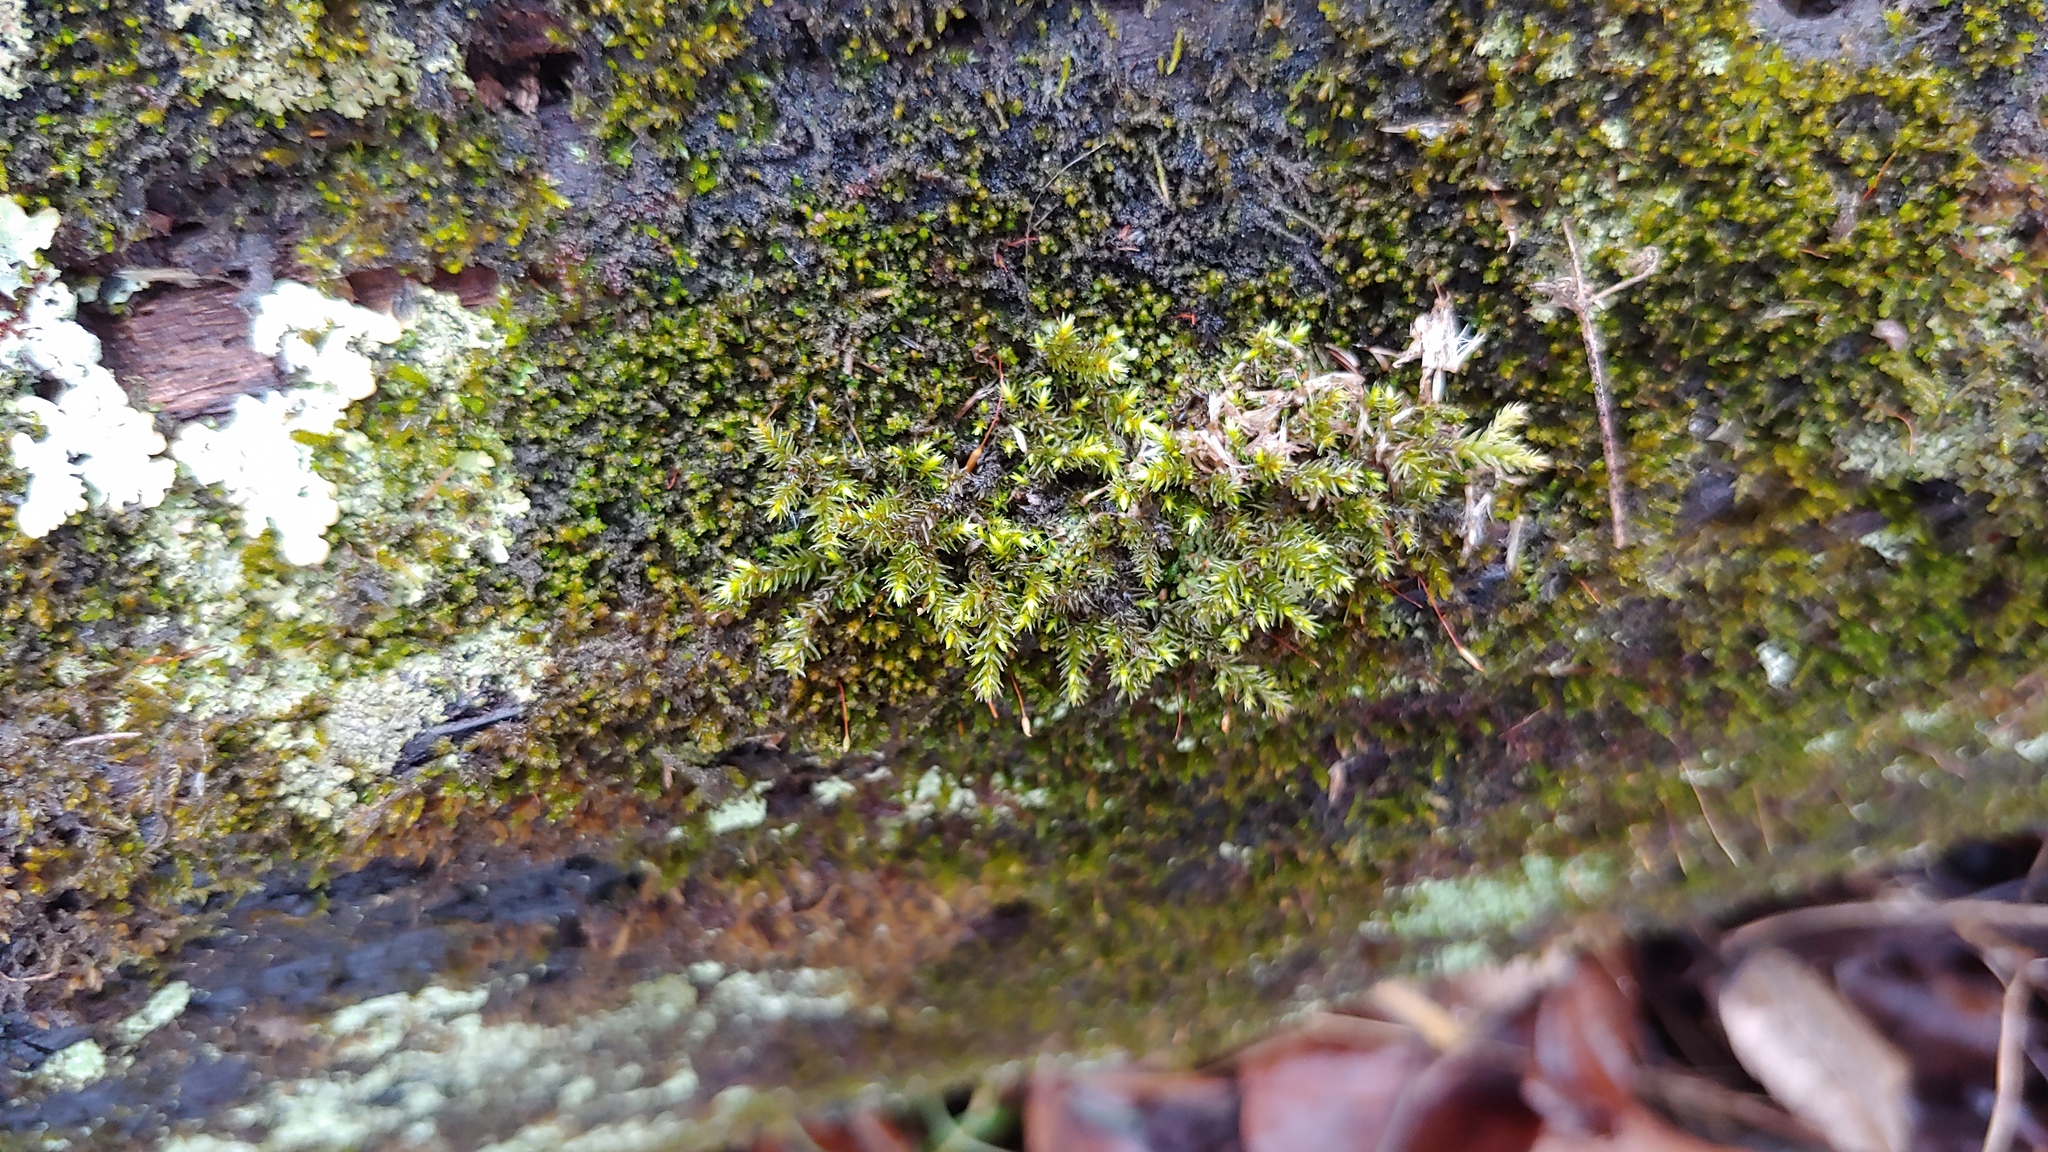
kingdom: Plantae
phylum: Bryophyta
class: Bryopsida
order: Hedwigiales
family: Hedwigiaceae
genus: Hedwigia
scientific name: Hedwigia ciliata
